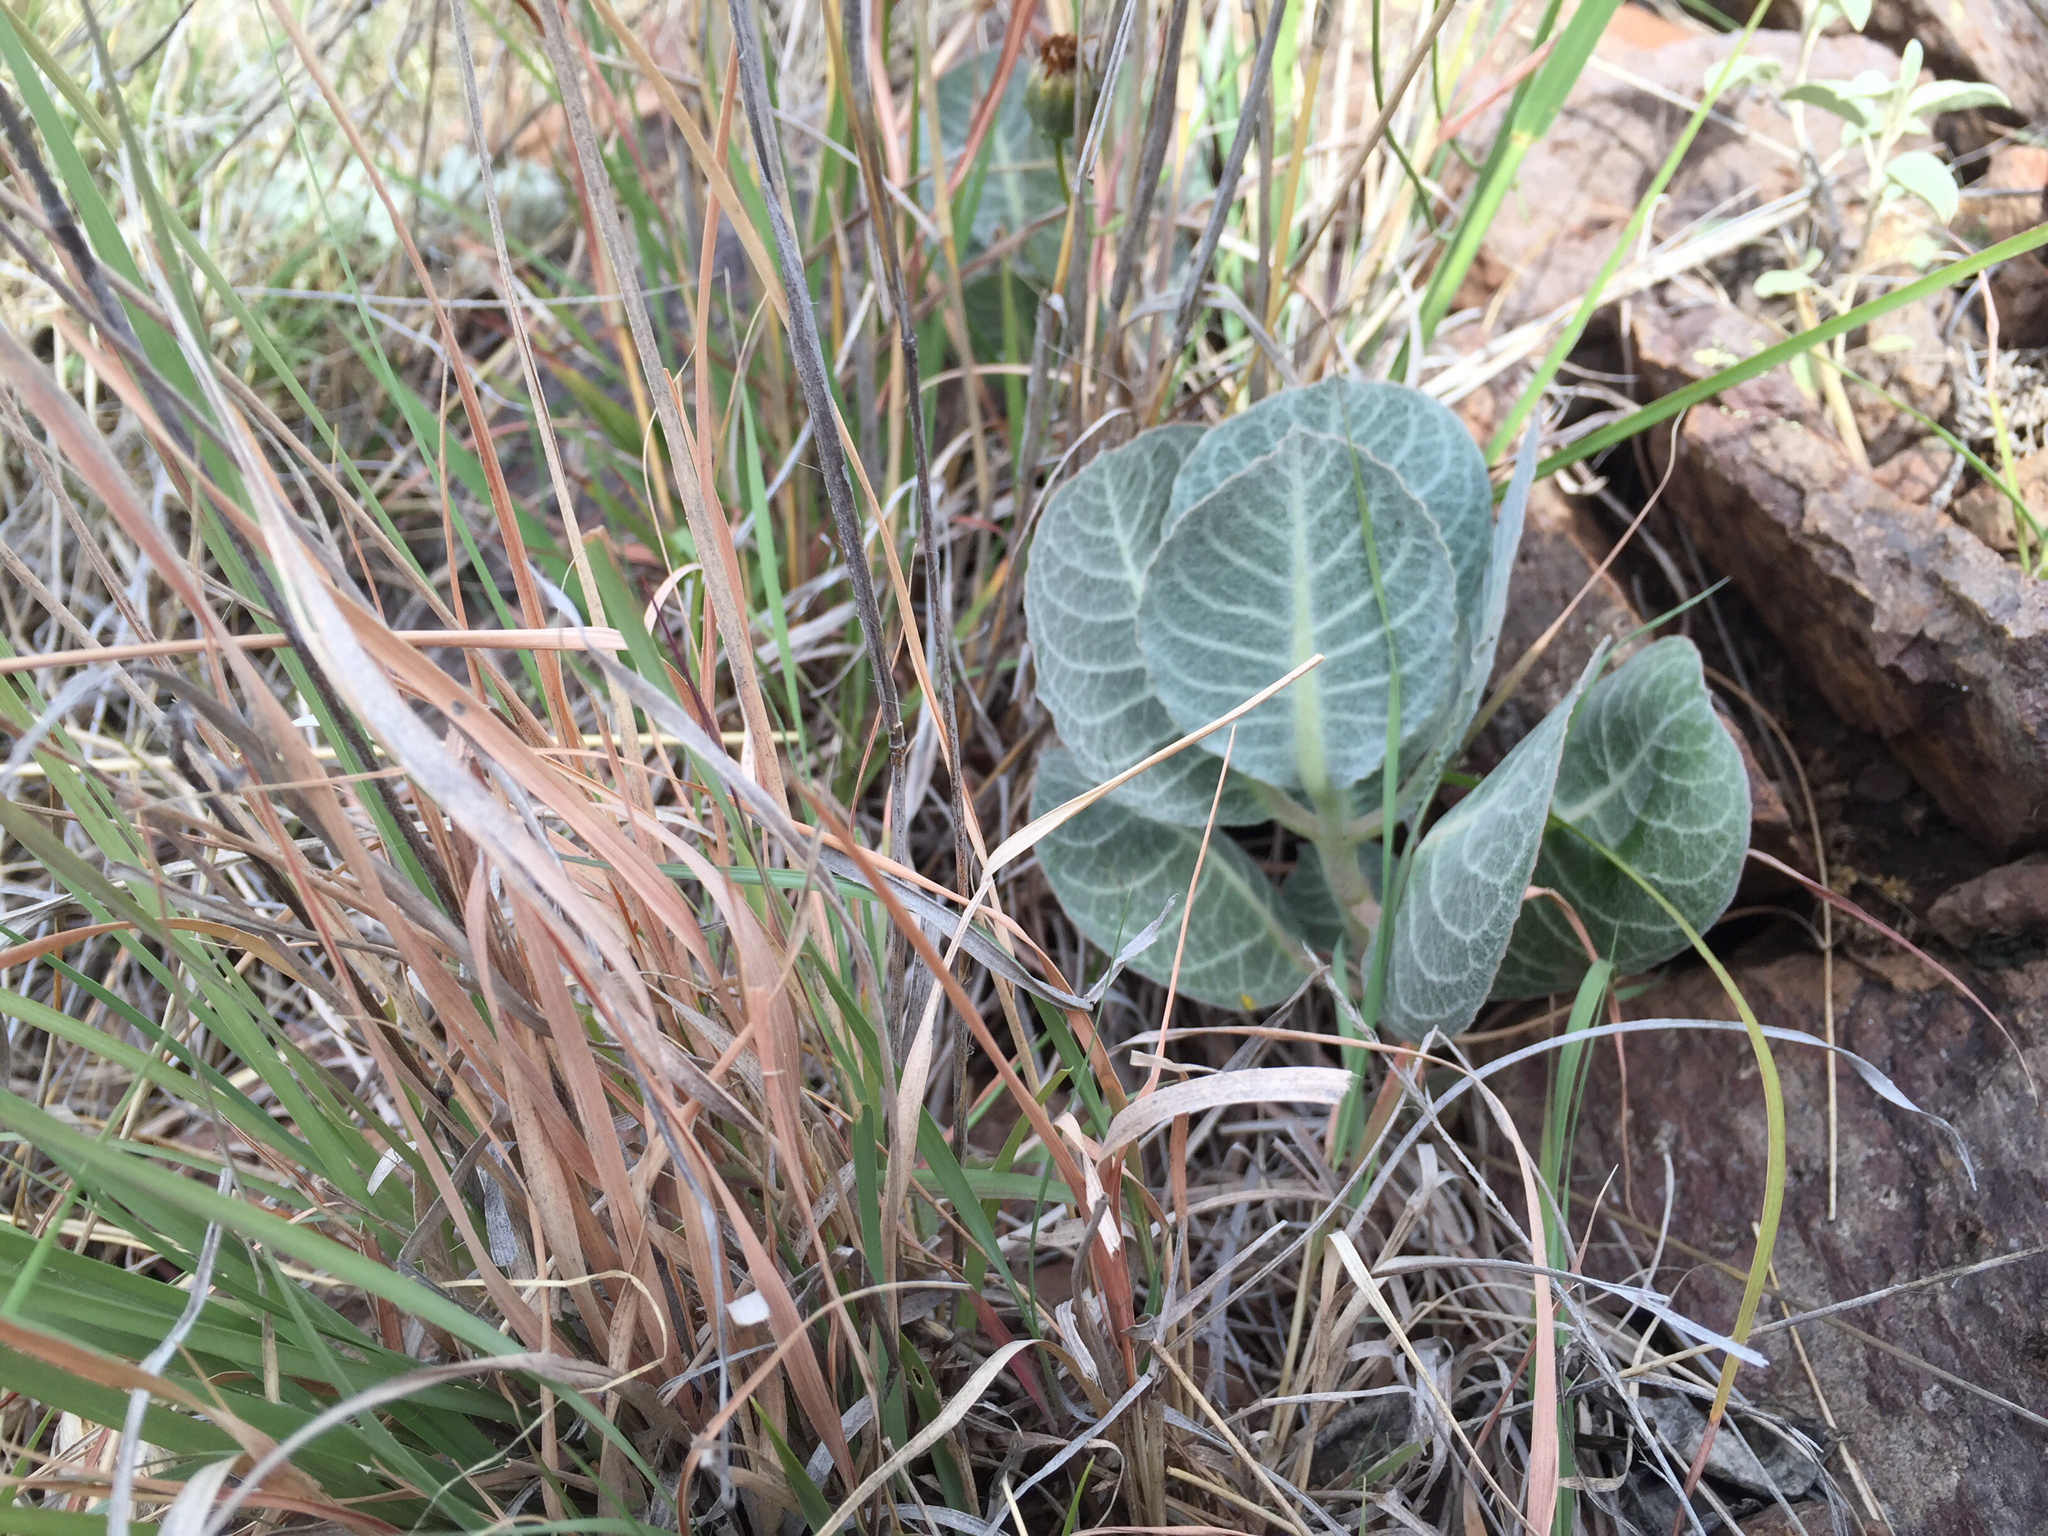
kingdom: Plantae
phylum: Tracheophyta
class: Magnoliopsida
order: Gentianales
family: Apocynaceae
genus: Asclepias
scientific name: Asclepias nummularia
